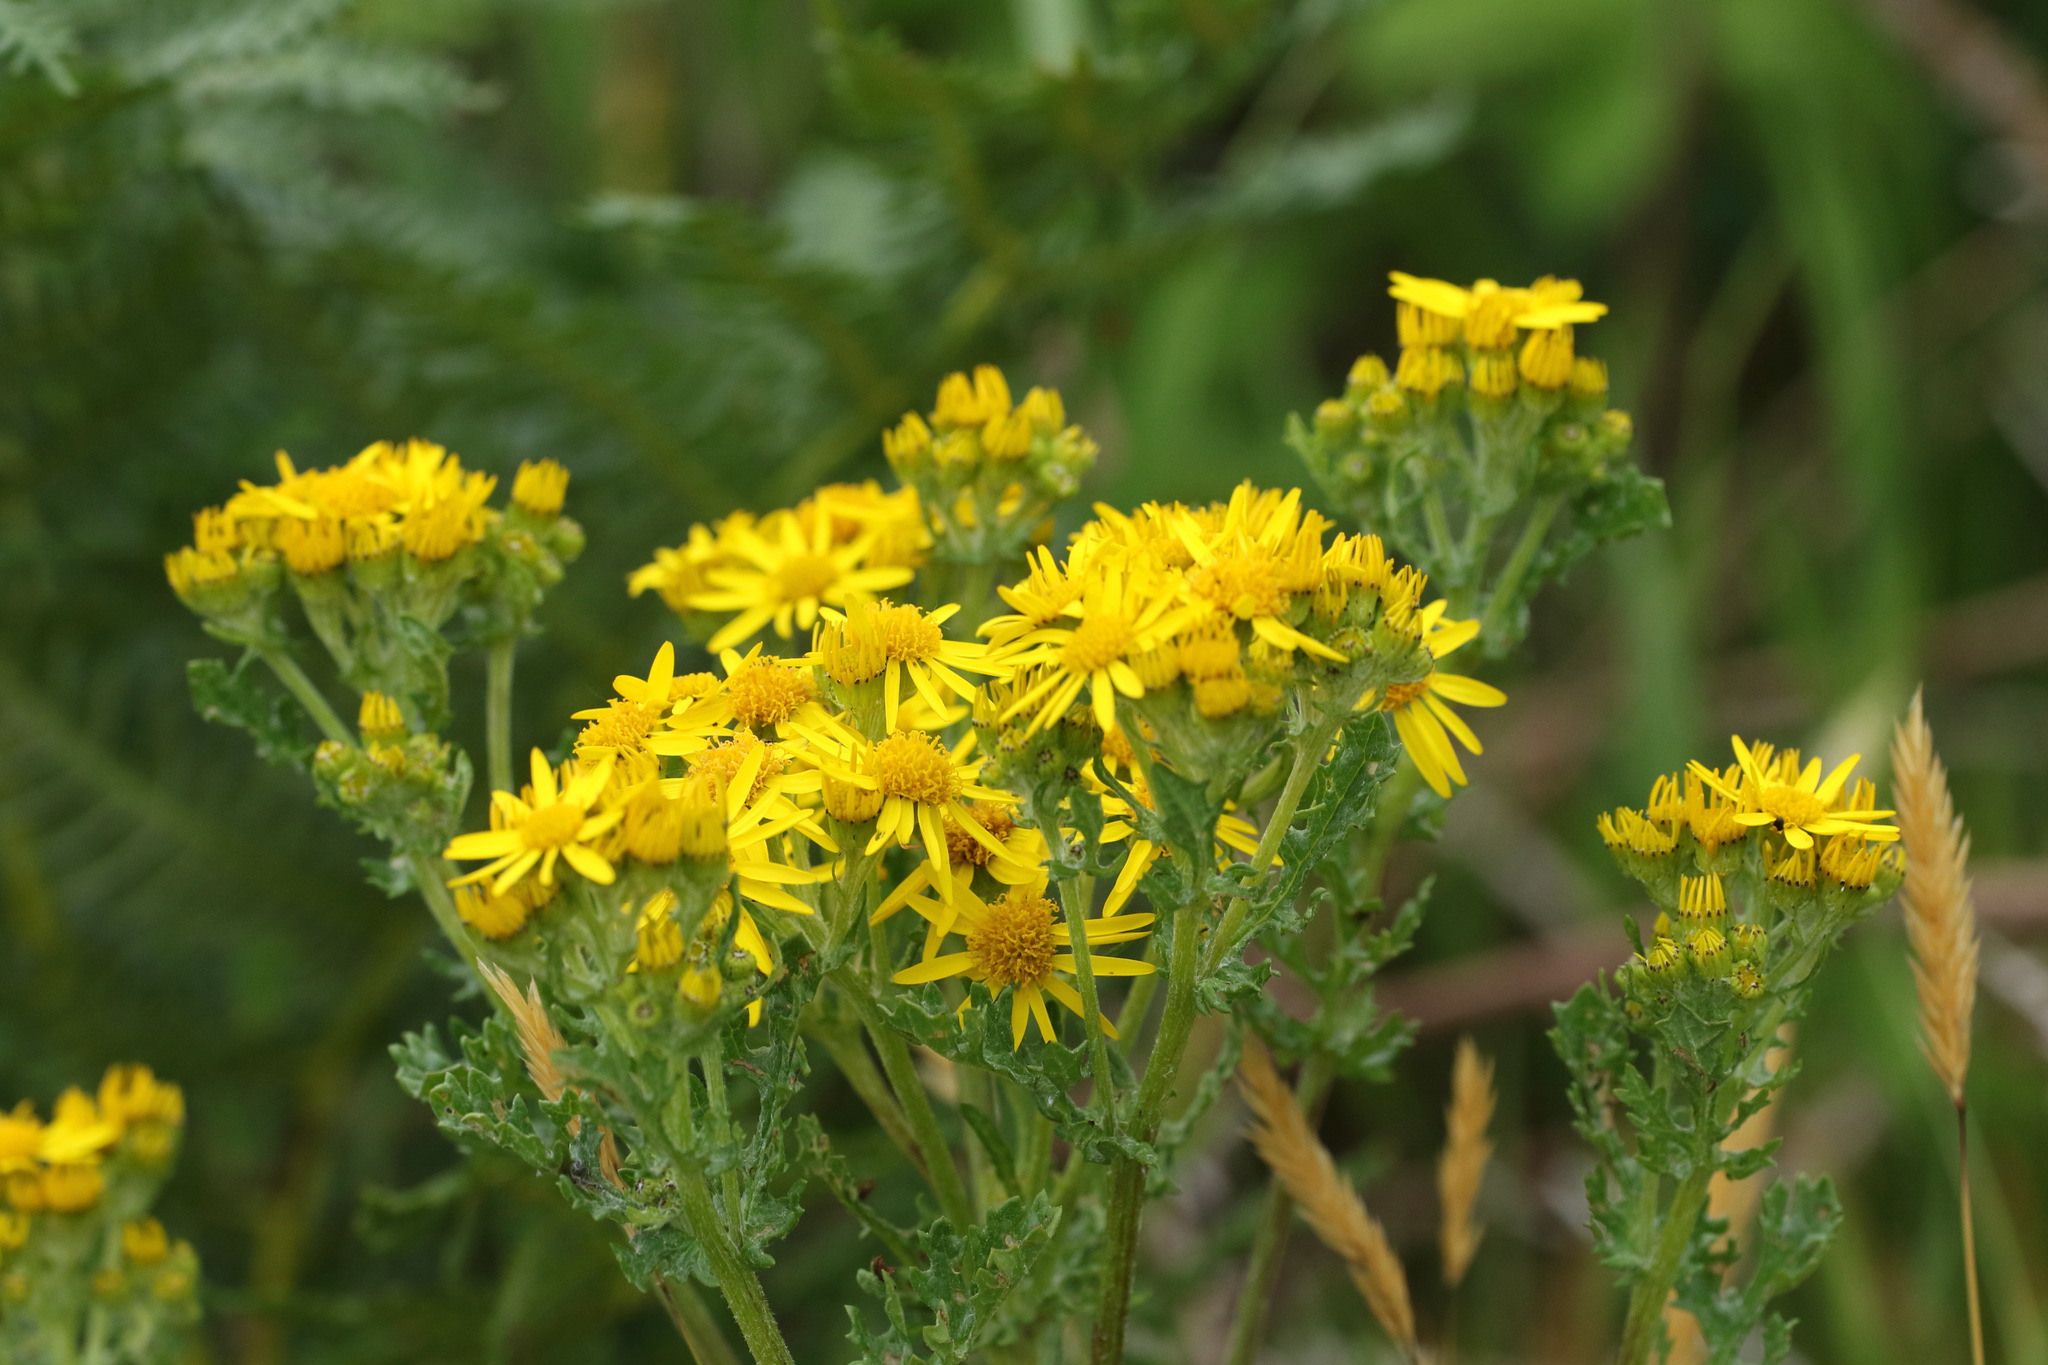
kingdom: Plantae
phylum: Tracheophyta
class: Magnoliopsida
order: Asterales
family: Asteraceae
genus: Jacobaea
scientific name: Jacobaea vulgaris
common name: Stinking willie
